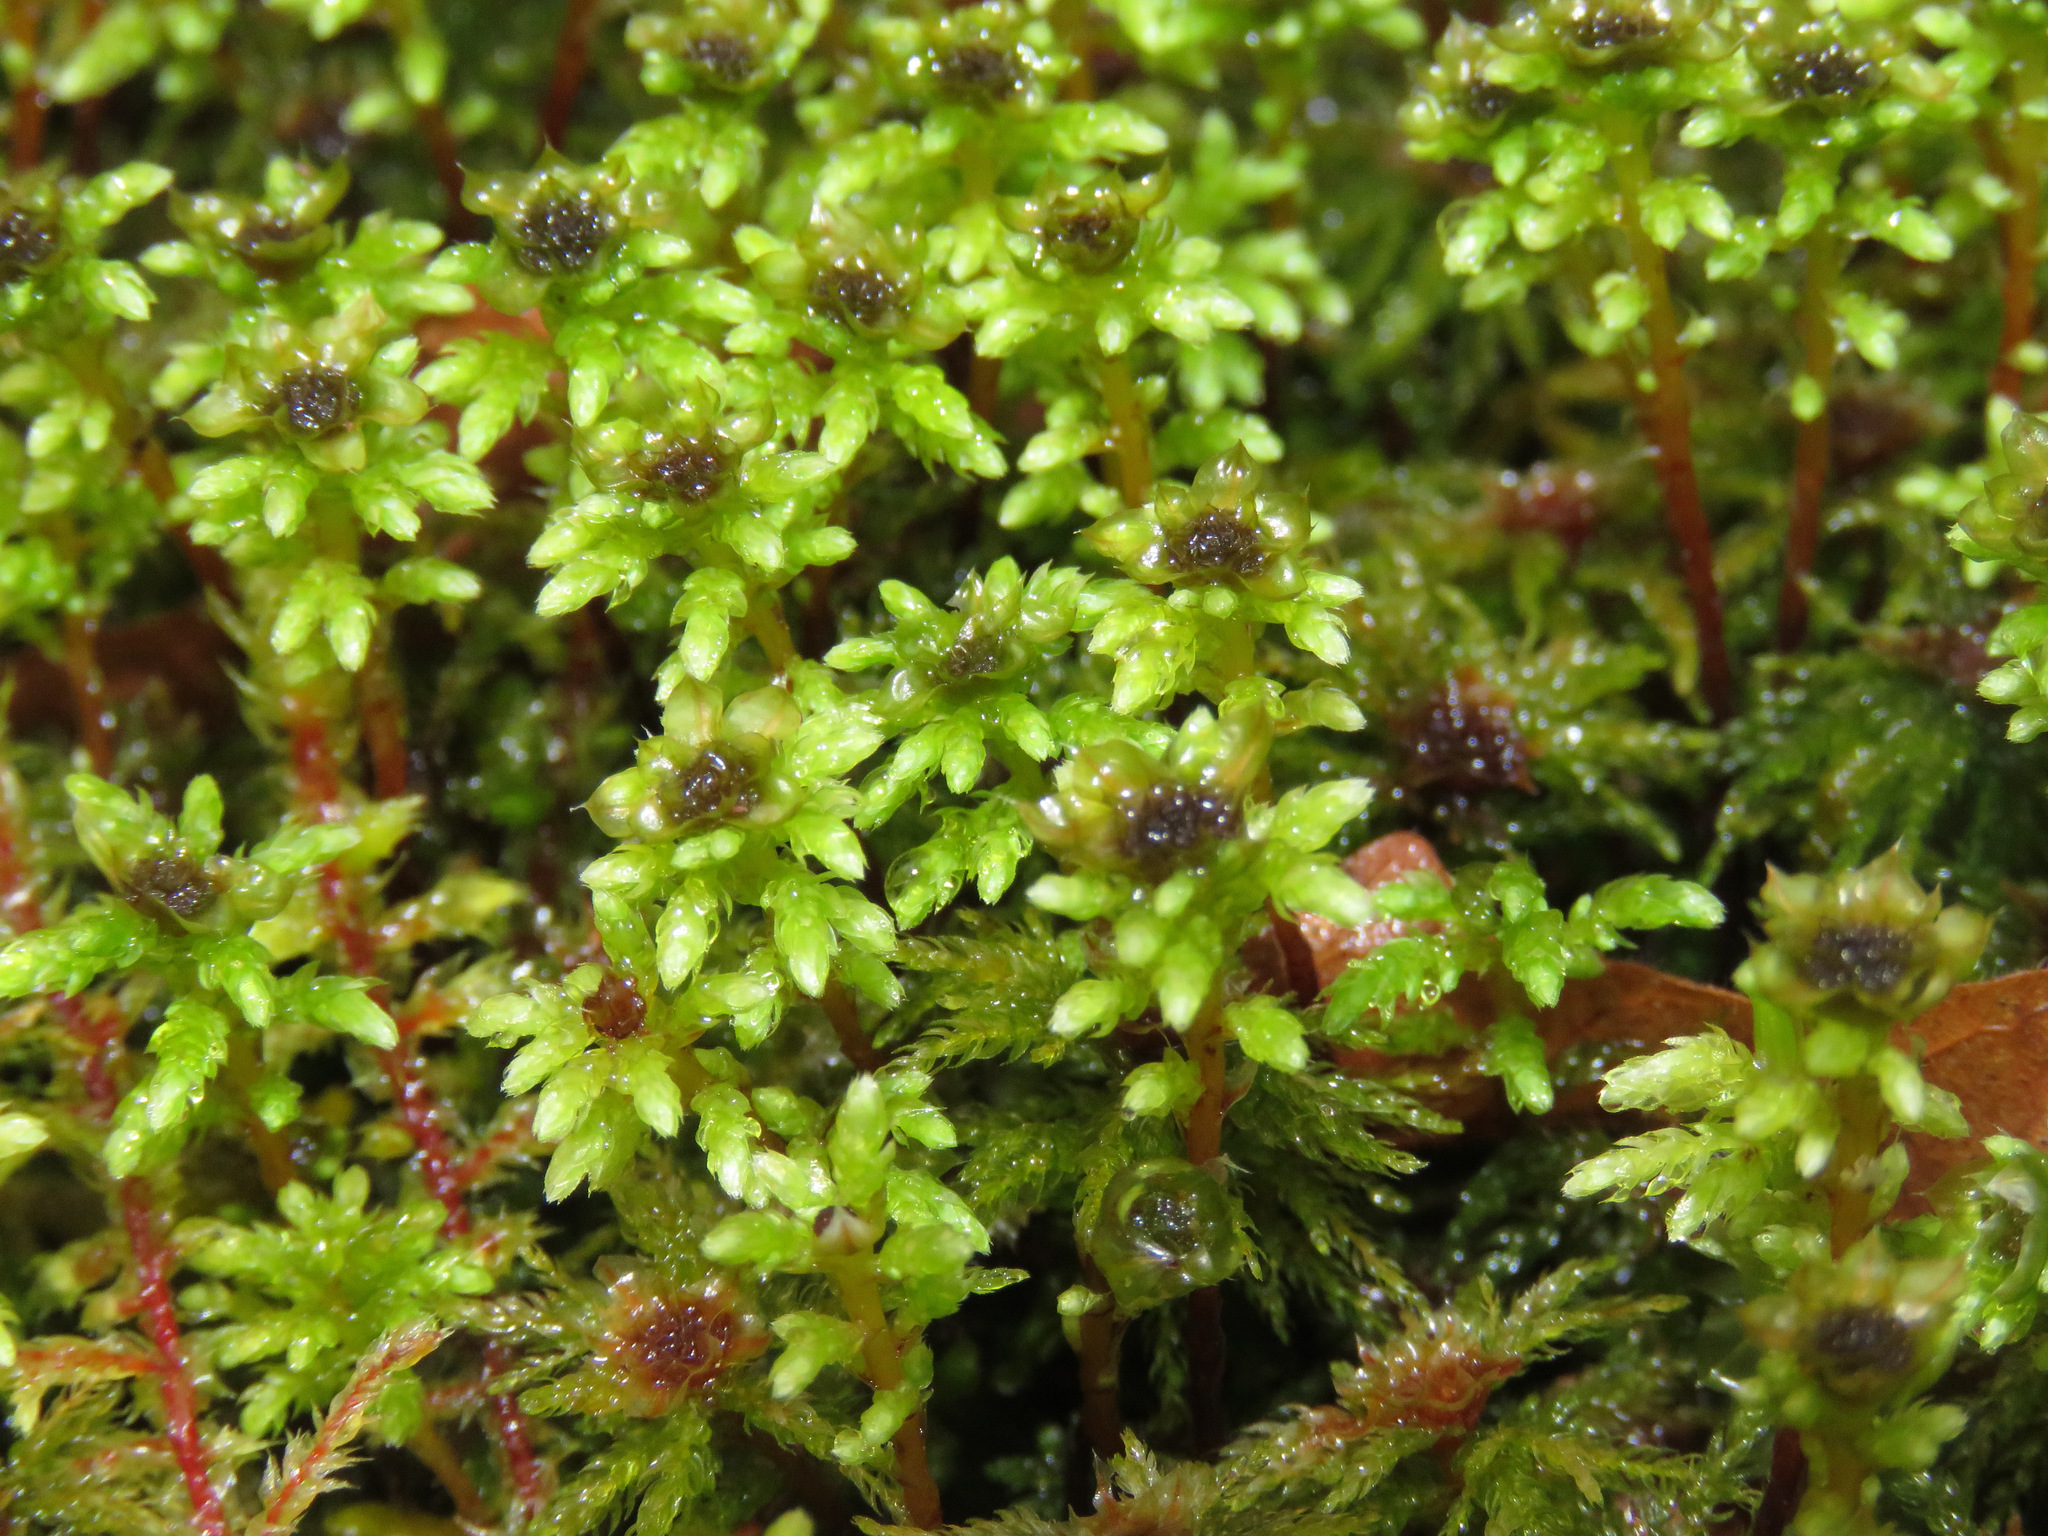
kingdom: Plantae
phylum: Bryophyta
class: Bryopsida
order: Bryales
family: Mniaceae
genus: Leucolepis
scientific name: Leucolepis acanthoneura
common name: Leucolepis umbrella moss
